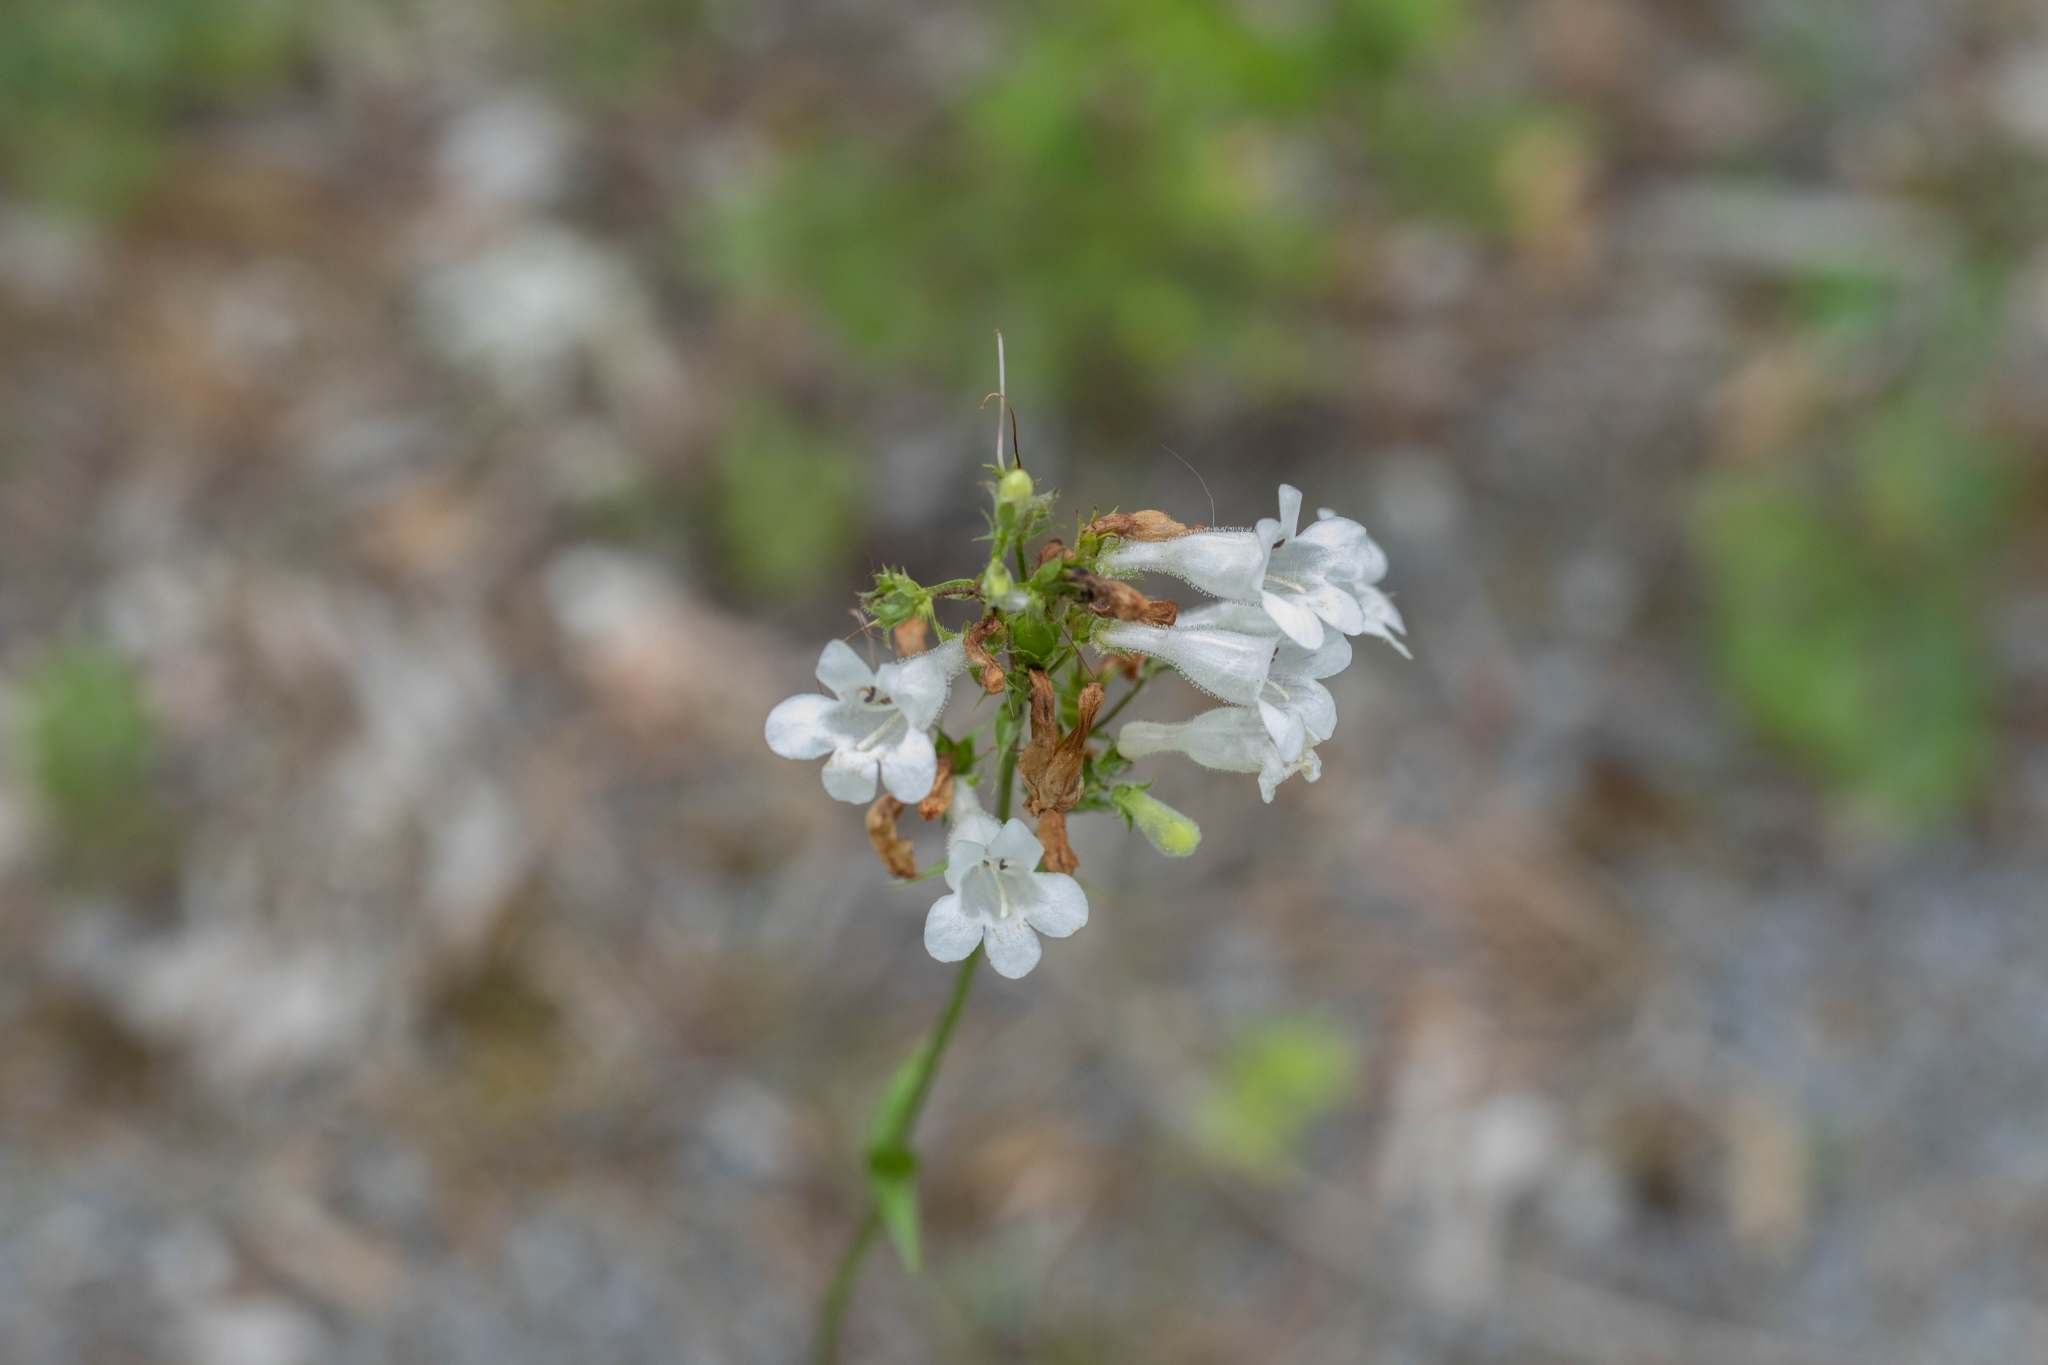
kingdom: Plantae
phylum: Tracheophyta
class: Magnoliopsida
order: Lamiales
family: Plantaginaceae
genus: Penstemon
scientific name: Penstemon digitalis
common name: Foxglove beardtongue
